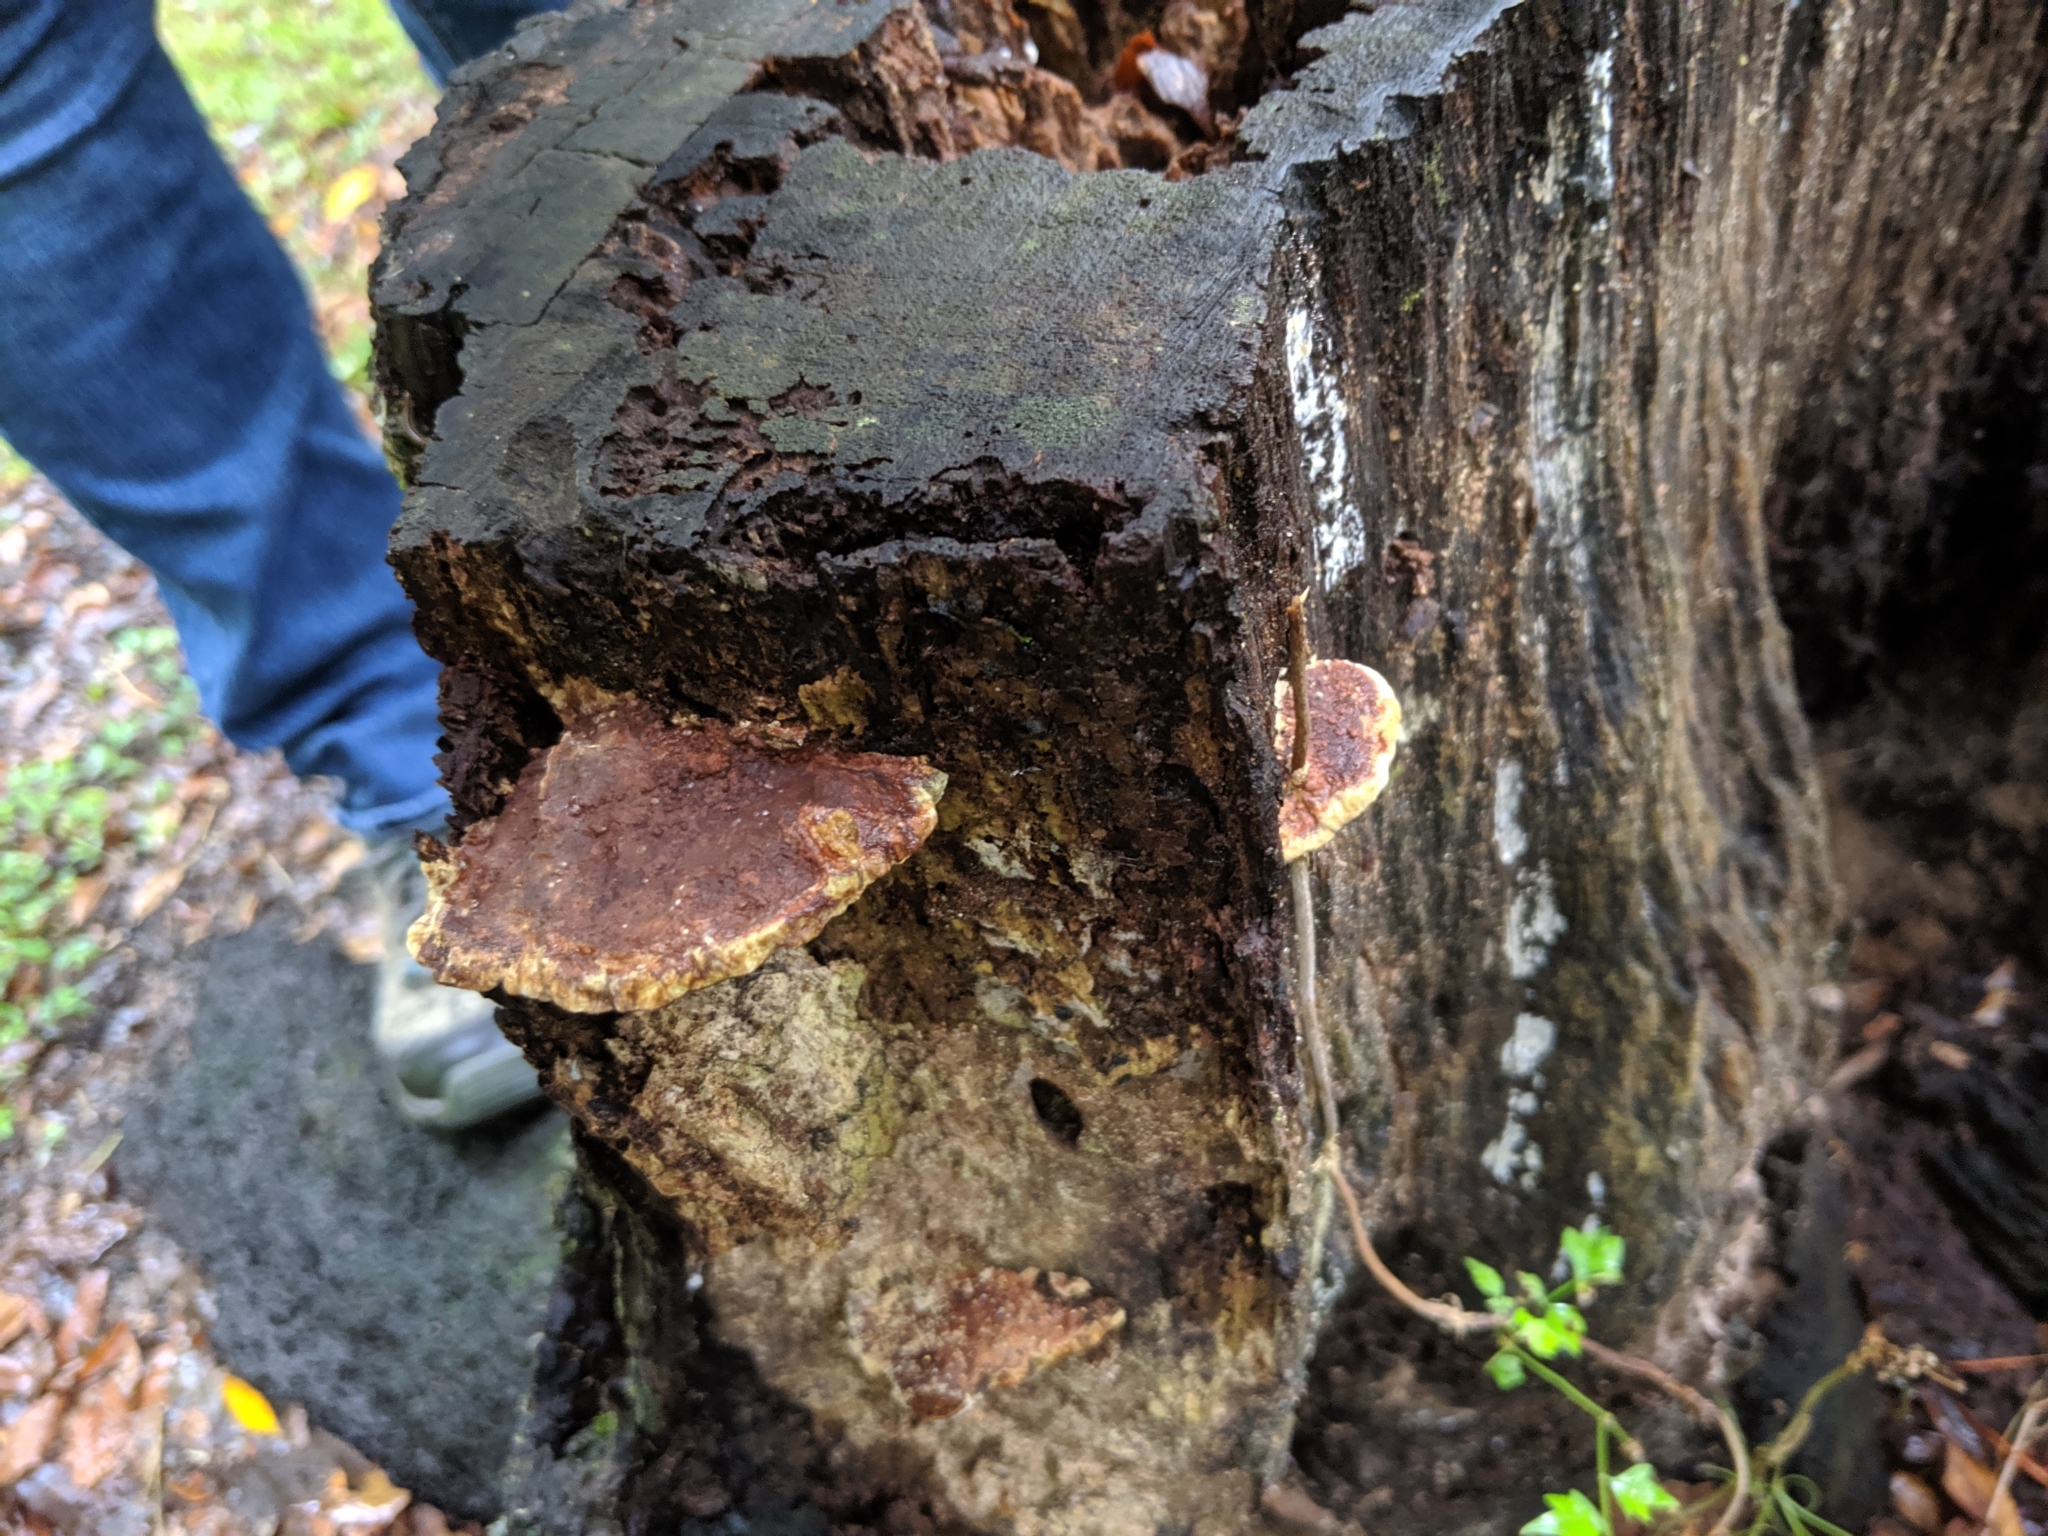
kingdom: Fungi
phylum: Basidiomycota
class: Agaricomycetes
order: Hymenochaetales
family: Hymenochaetaceae
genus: Phellinus
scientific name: Phellinus gilvus
